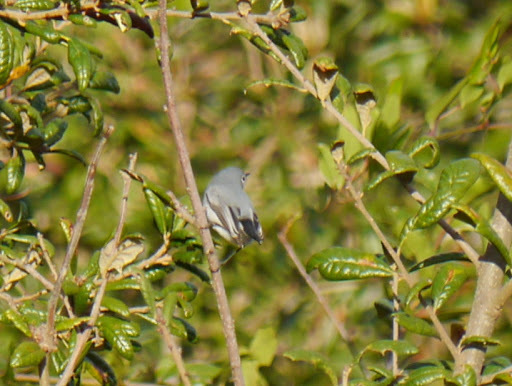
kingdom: Animalia
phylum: Chordata
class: Aves
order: Passeriformes
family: Polioptilidae
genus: Polioptila
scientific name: Polioptila caerulea
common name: Blue-gray gnatcatcher
